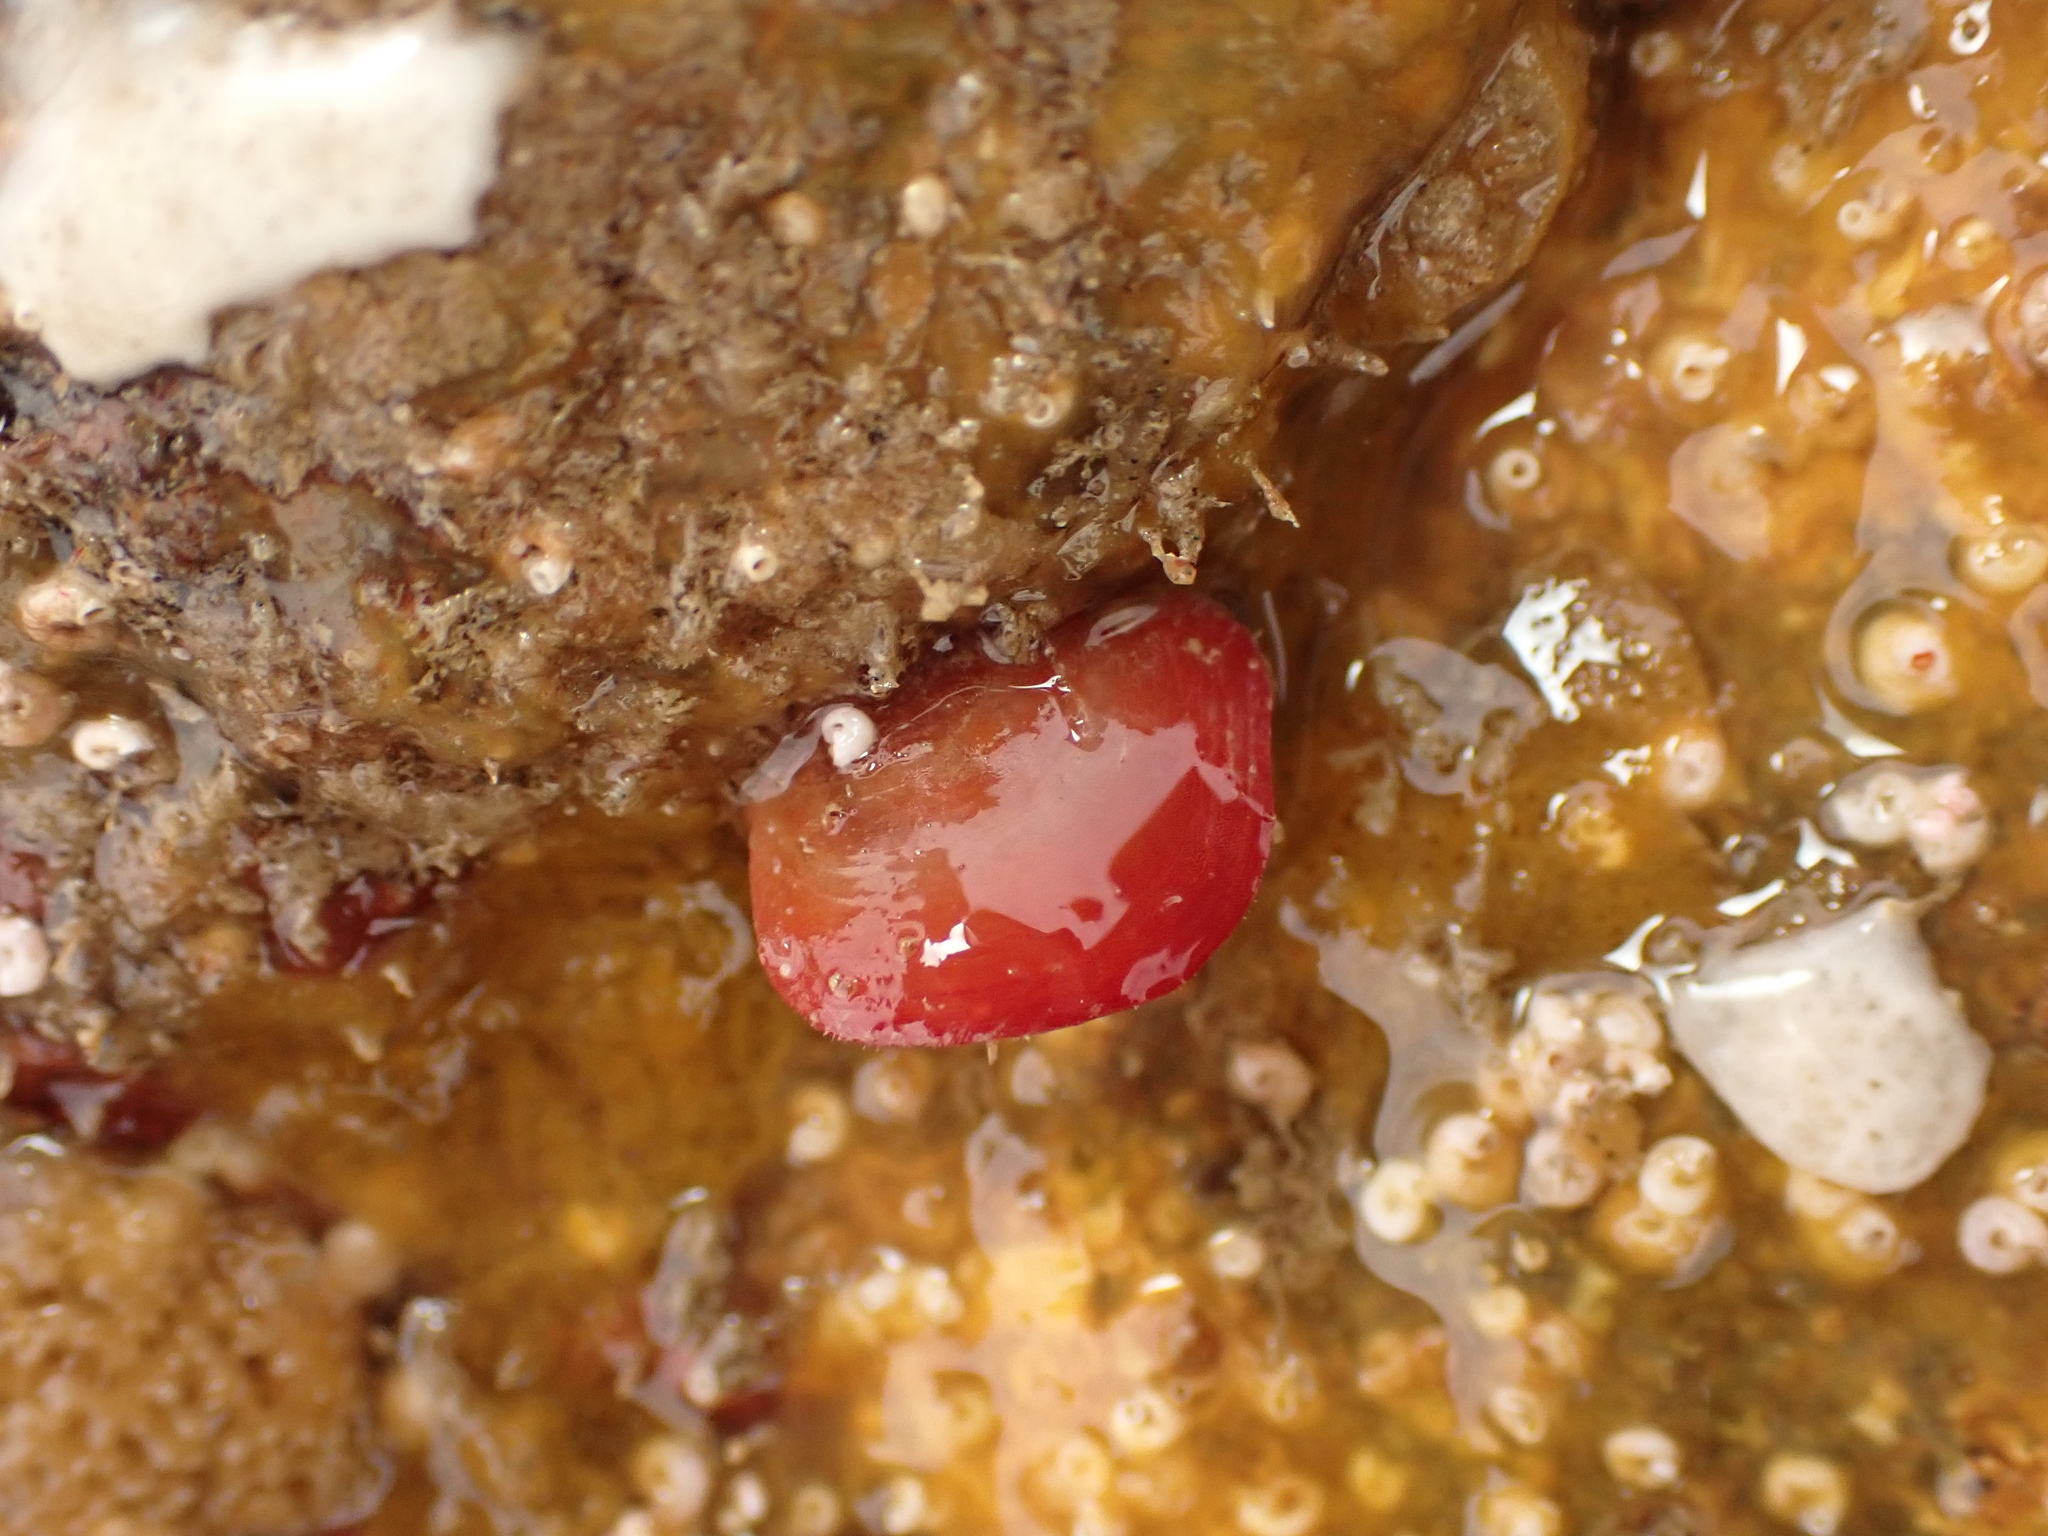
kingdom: Animalia
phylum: Brachiopoda
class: Rhynchonellata
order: Terebratulida
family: Terebratellidae
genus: Calloria
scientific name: Calloria inconspicua
